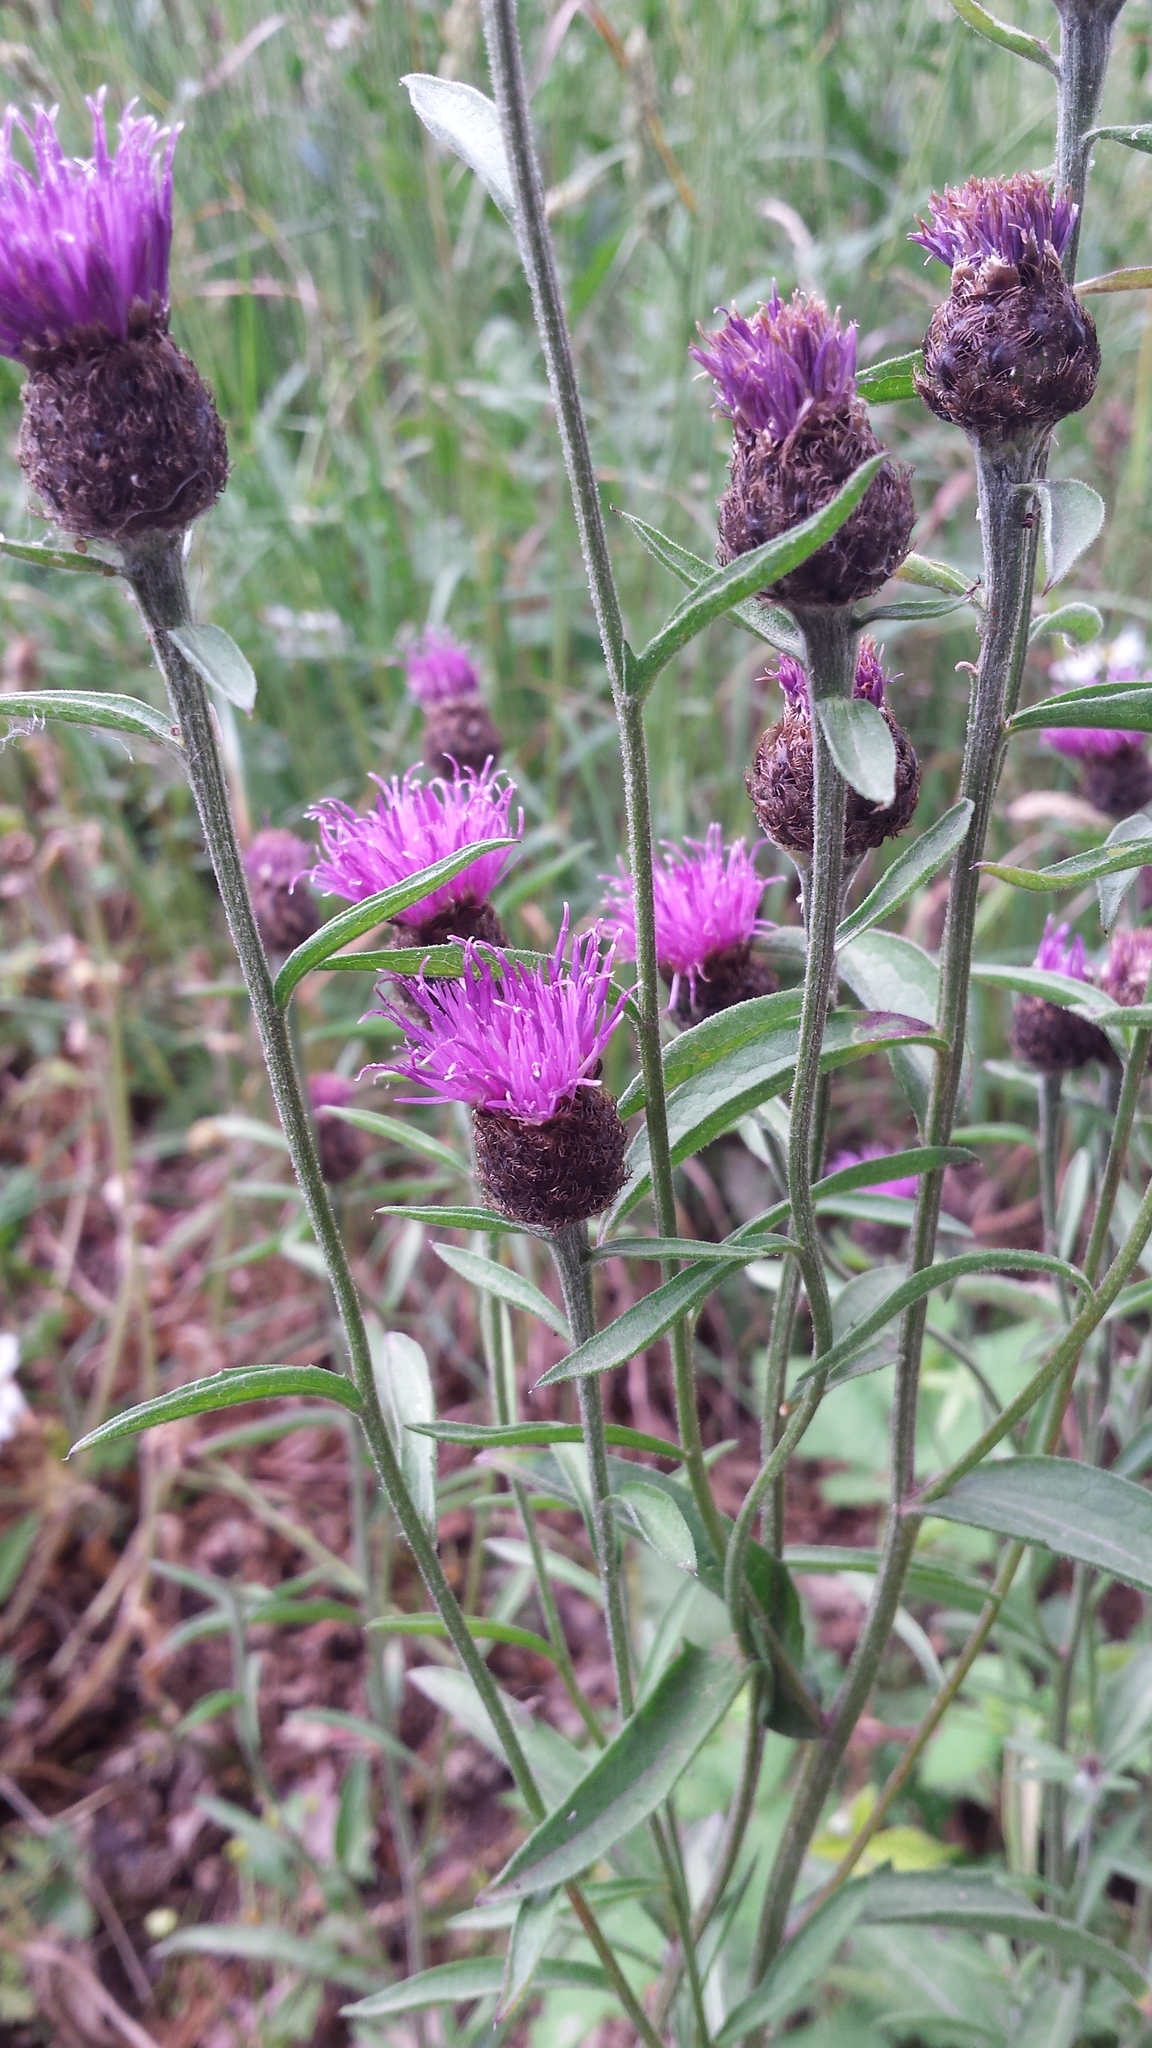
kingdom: Plantae
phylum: Tracheophyta
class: Magnoliopsida
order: Asterales
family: Asteraceae
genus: Centaurea
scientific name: Centaurea nigra
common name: Lesser knapweed
